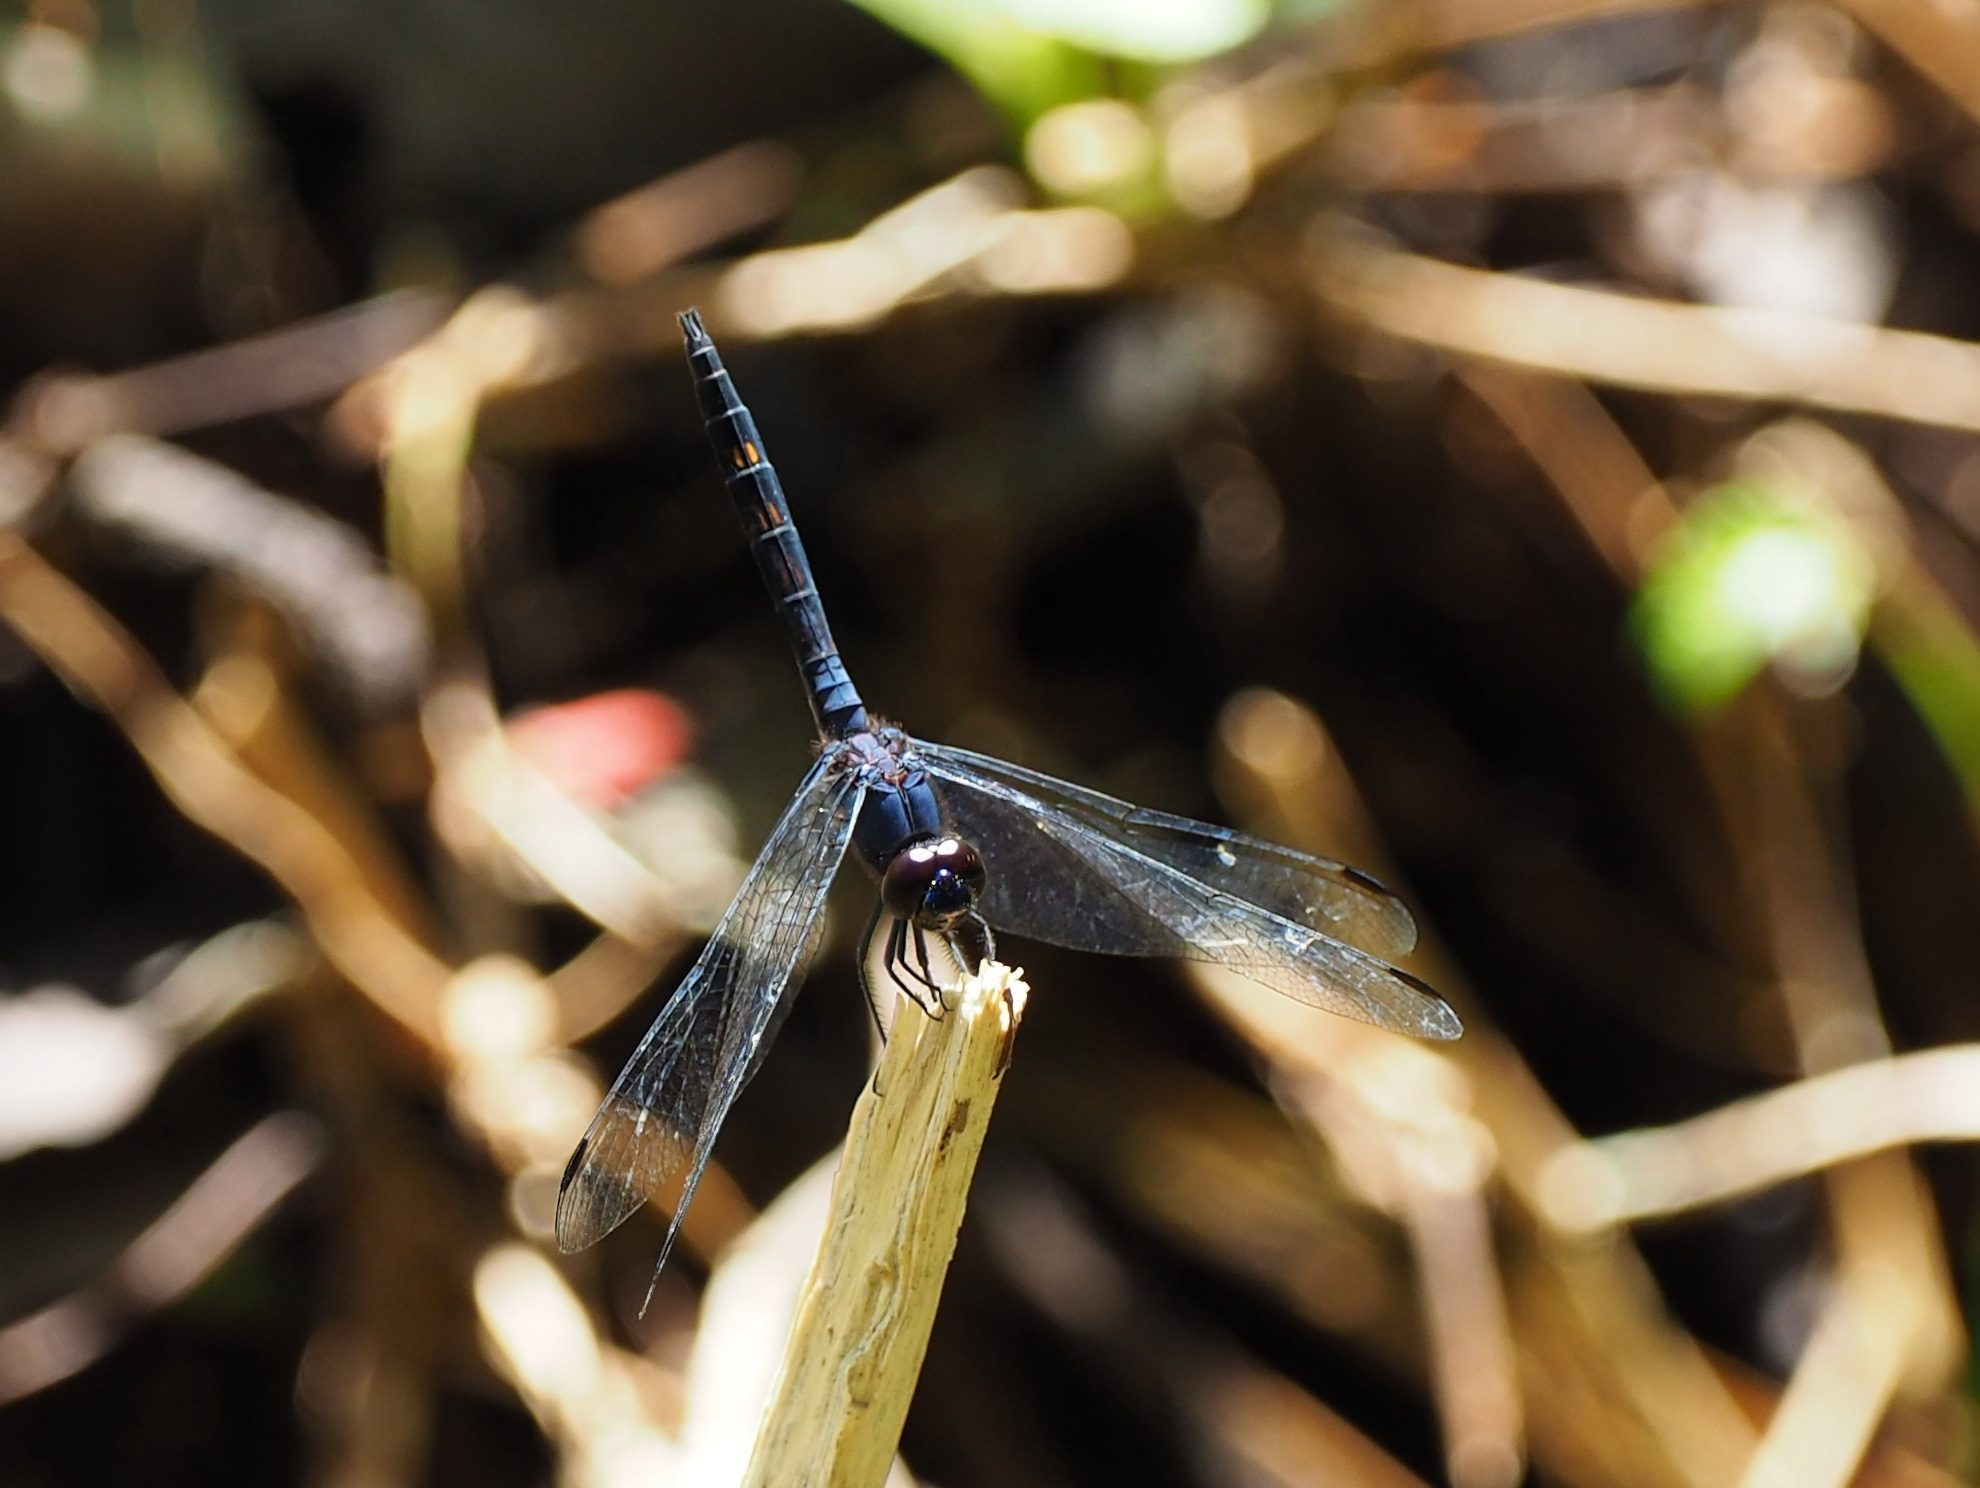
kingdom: Animalia
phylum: Arthropoda
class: Insecta
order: Odonata
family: Libellulidae
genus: Trithemis
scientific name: Trithemis festiva
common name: Indigo dropwing
